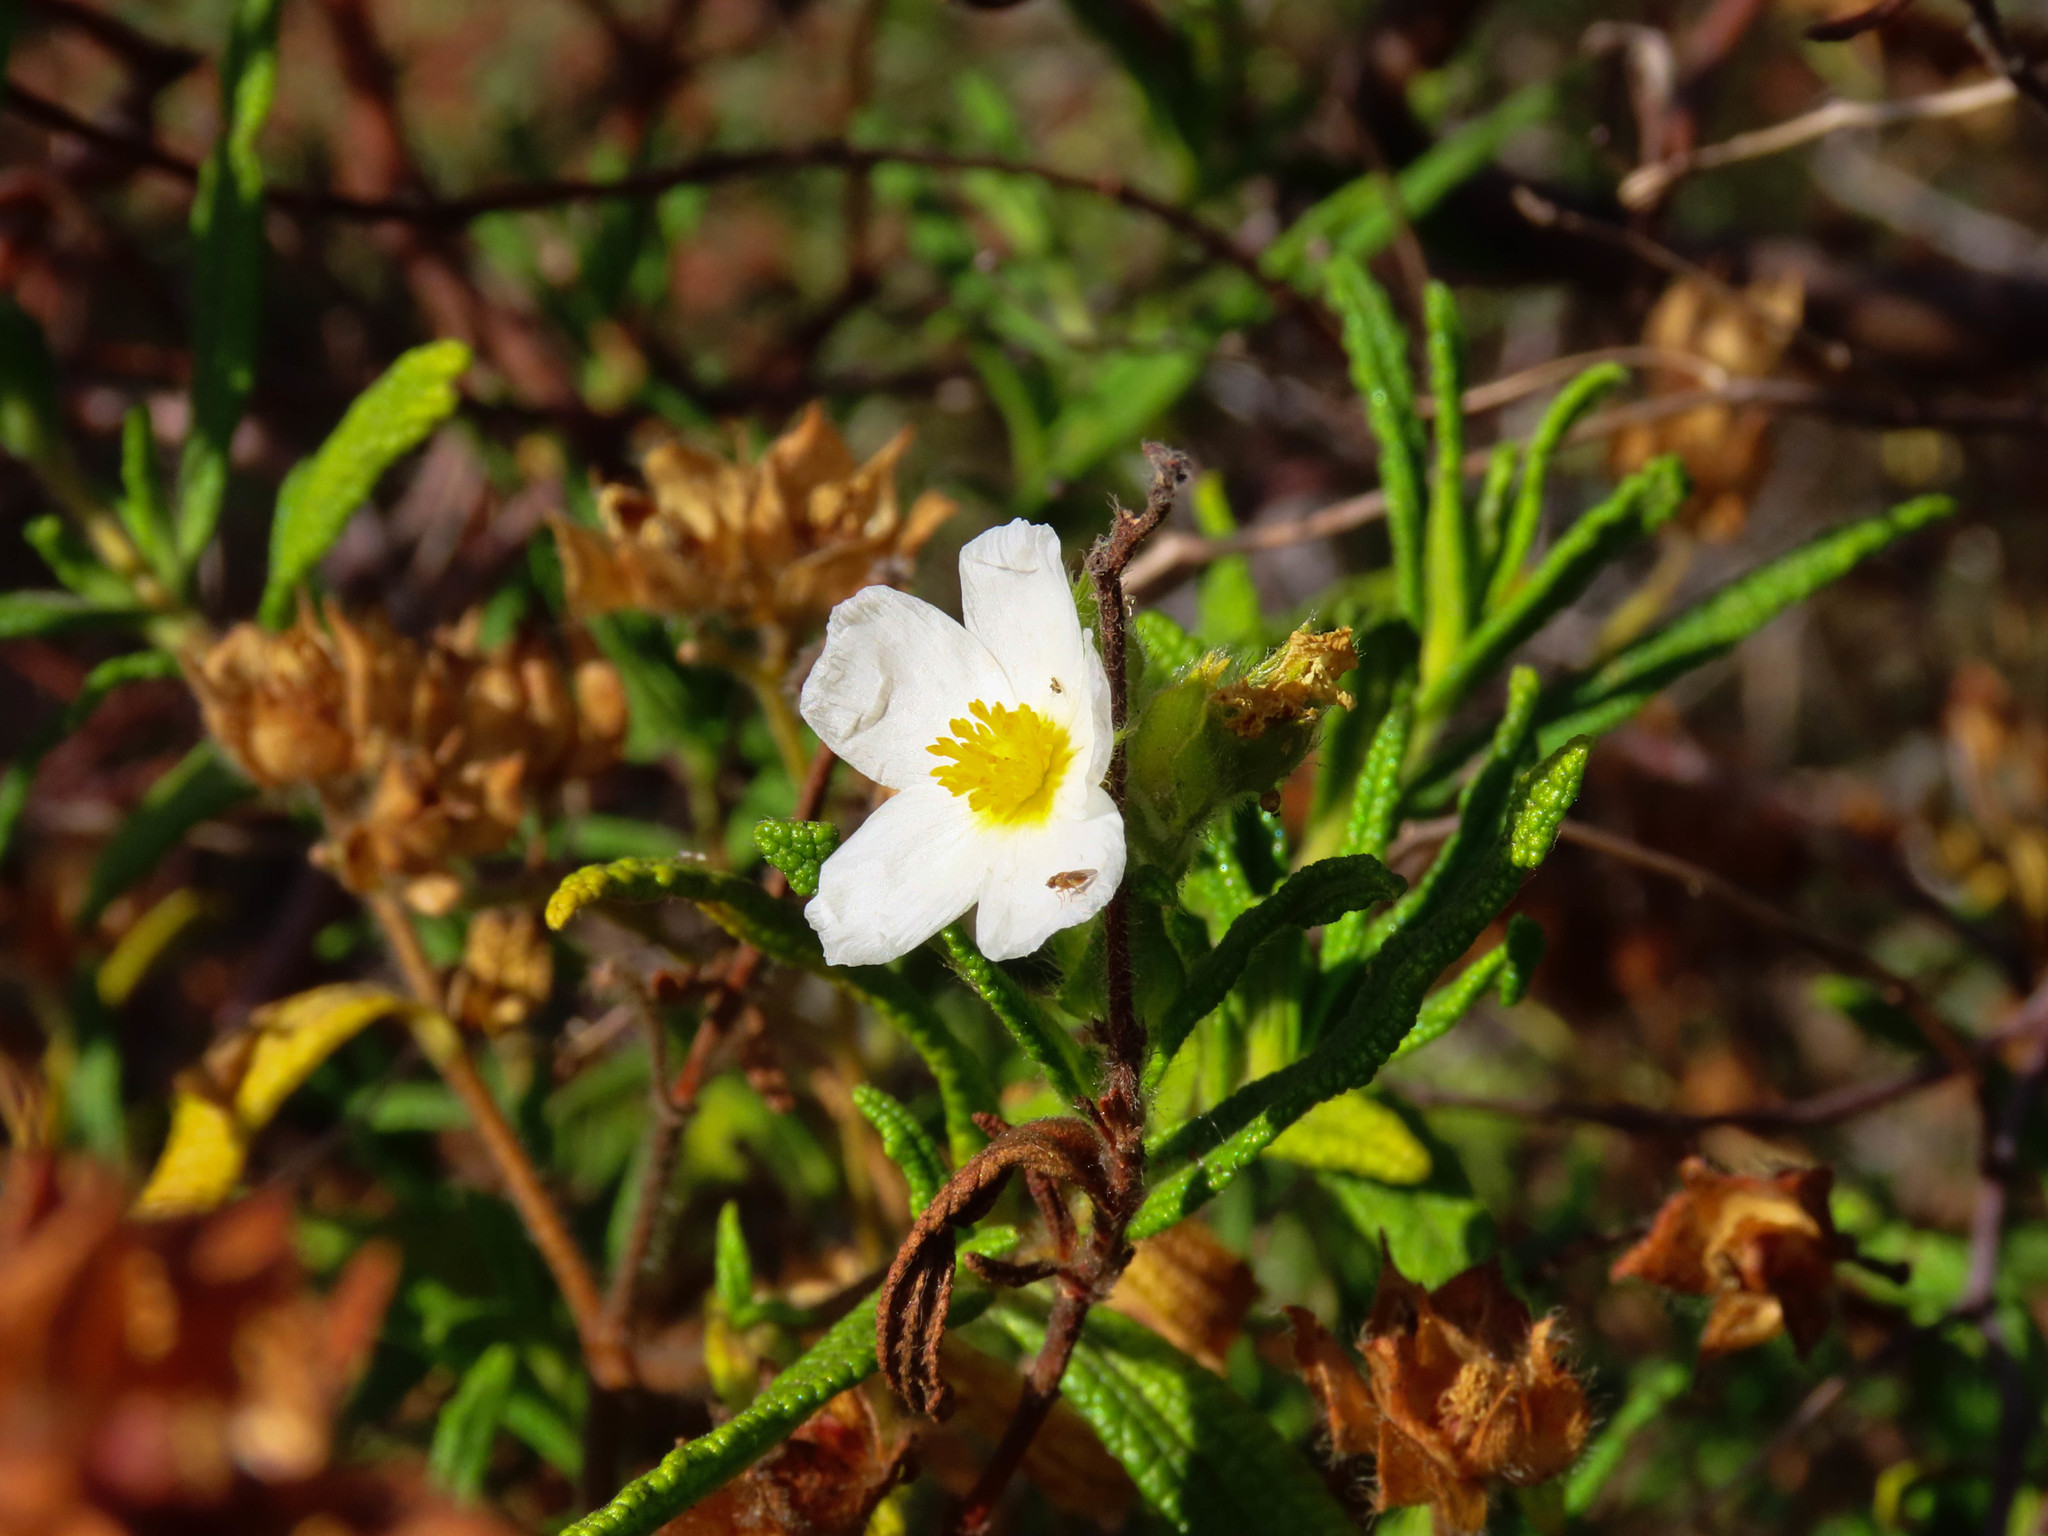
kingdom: Plantae
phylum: Tracheophyta
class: Magnoliopsida
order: Malvales
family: Cistaceae
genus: Cistus
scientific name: Cistus monspeliensis
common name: Montpelier cistus
